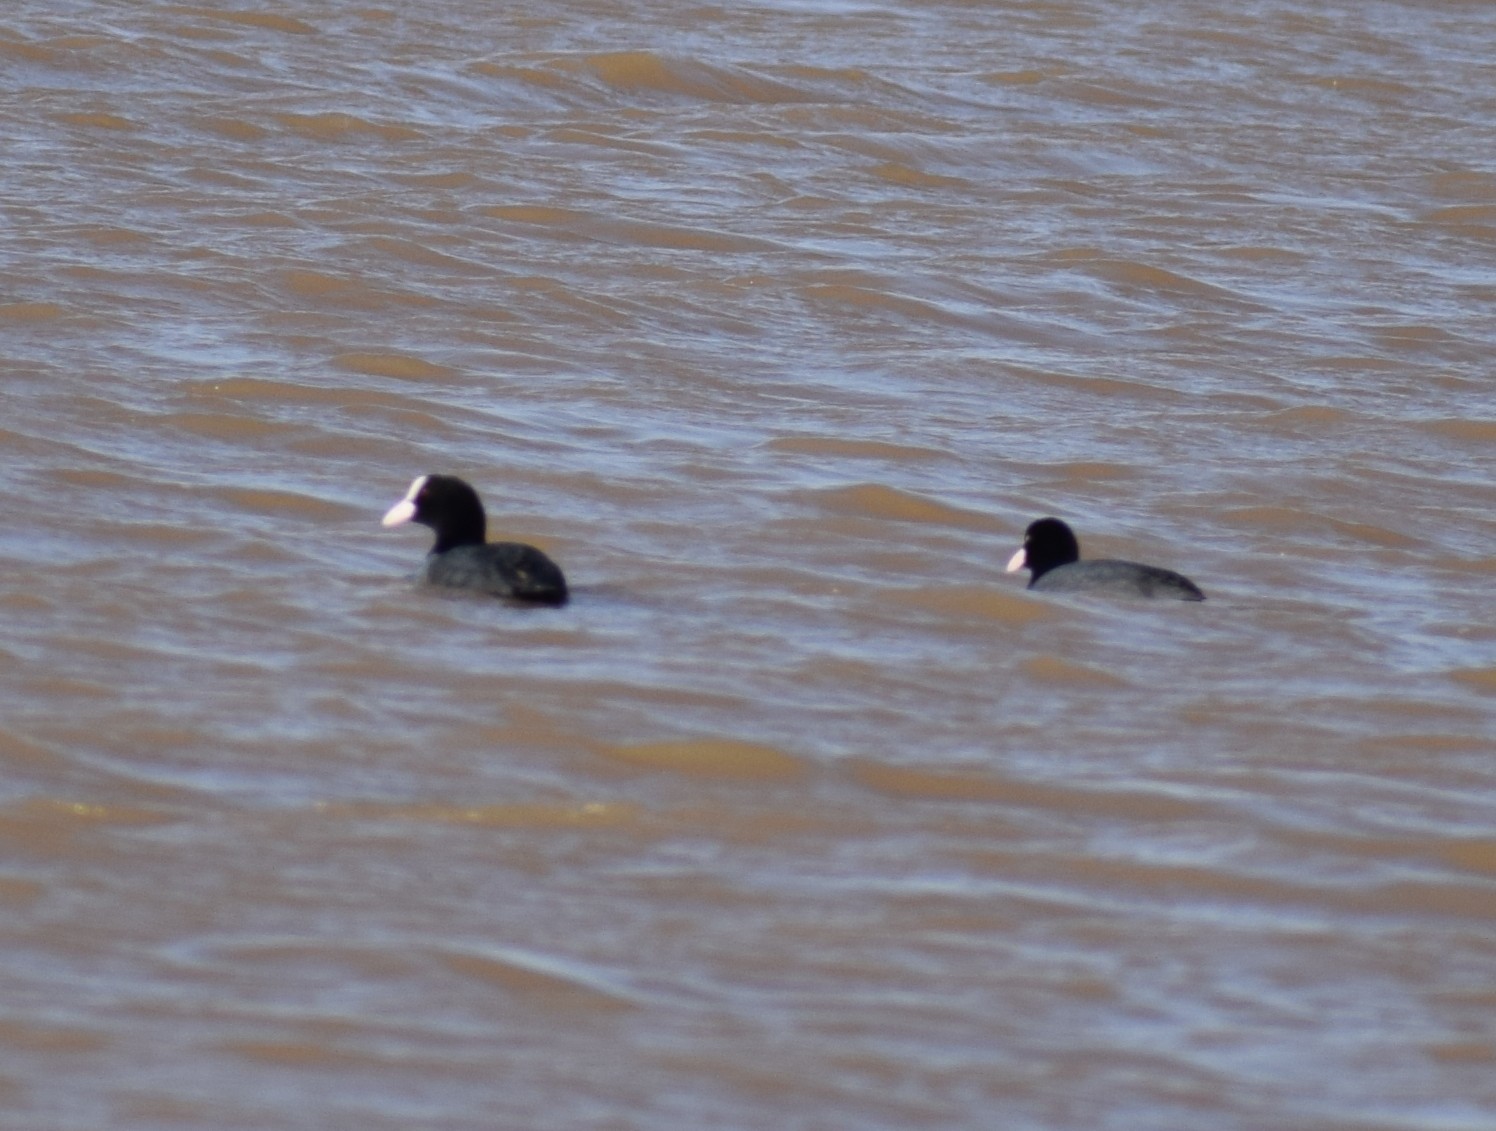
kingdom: Animalia
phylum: Chordata
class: Aves
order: Gruiformes
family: Rallidae
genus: Fulica
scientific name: Fulica atra
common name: Eurasian coot
